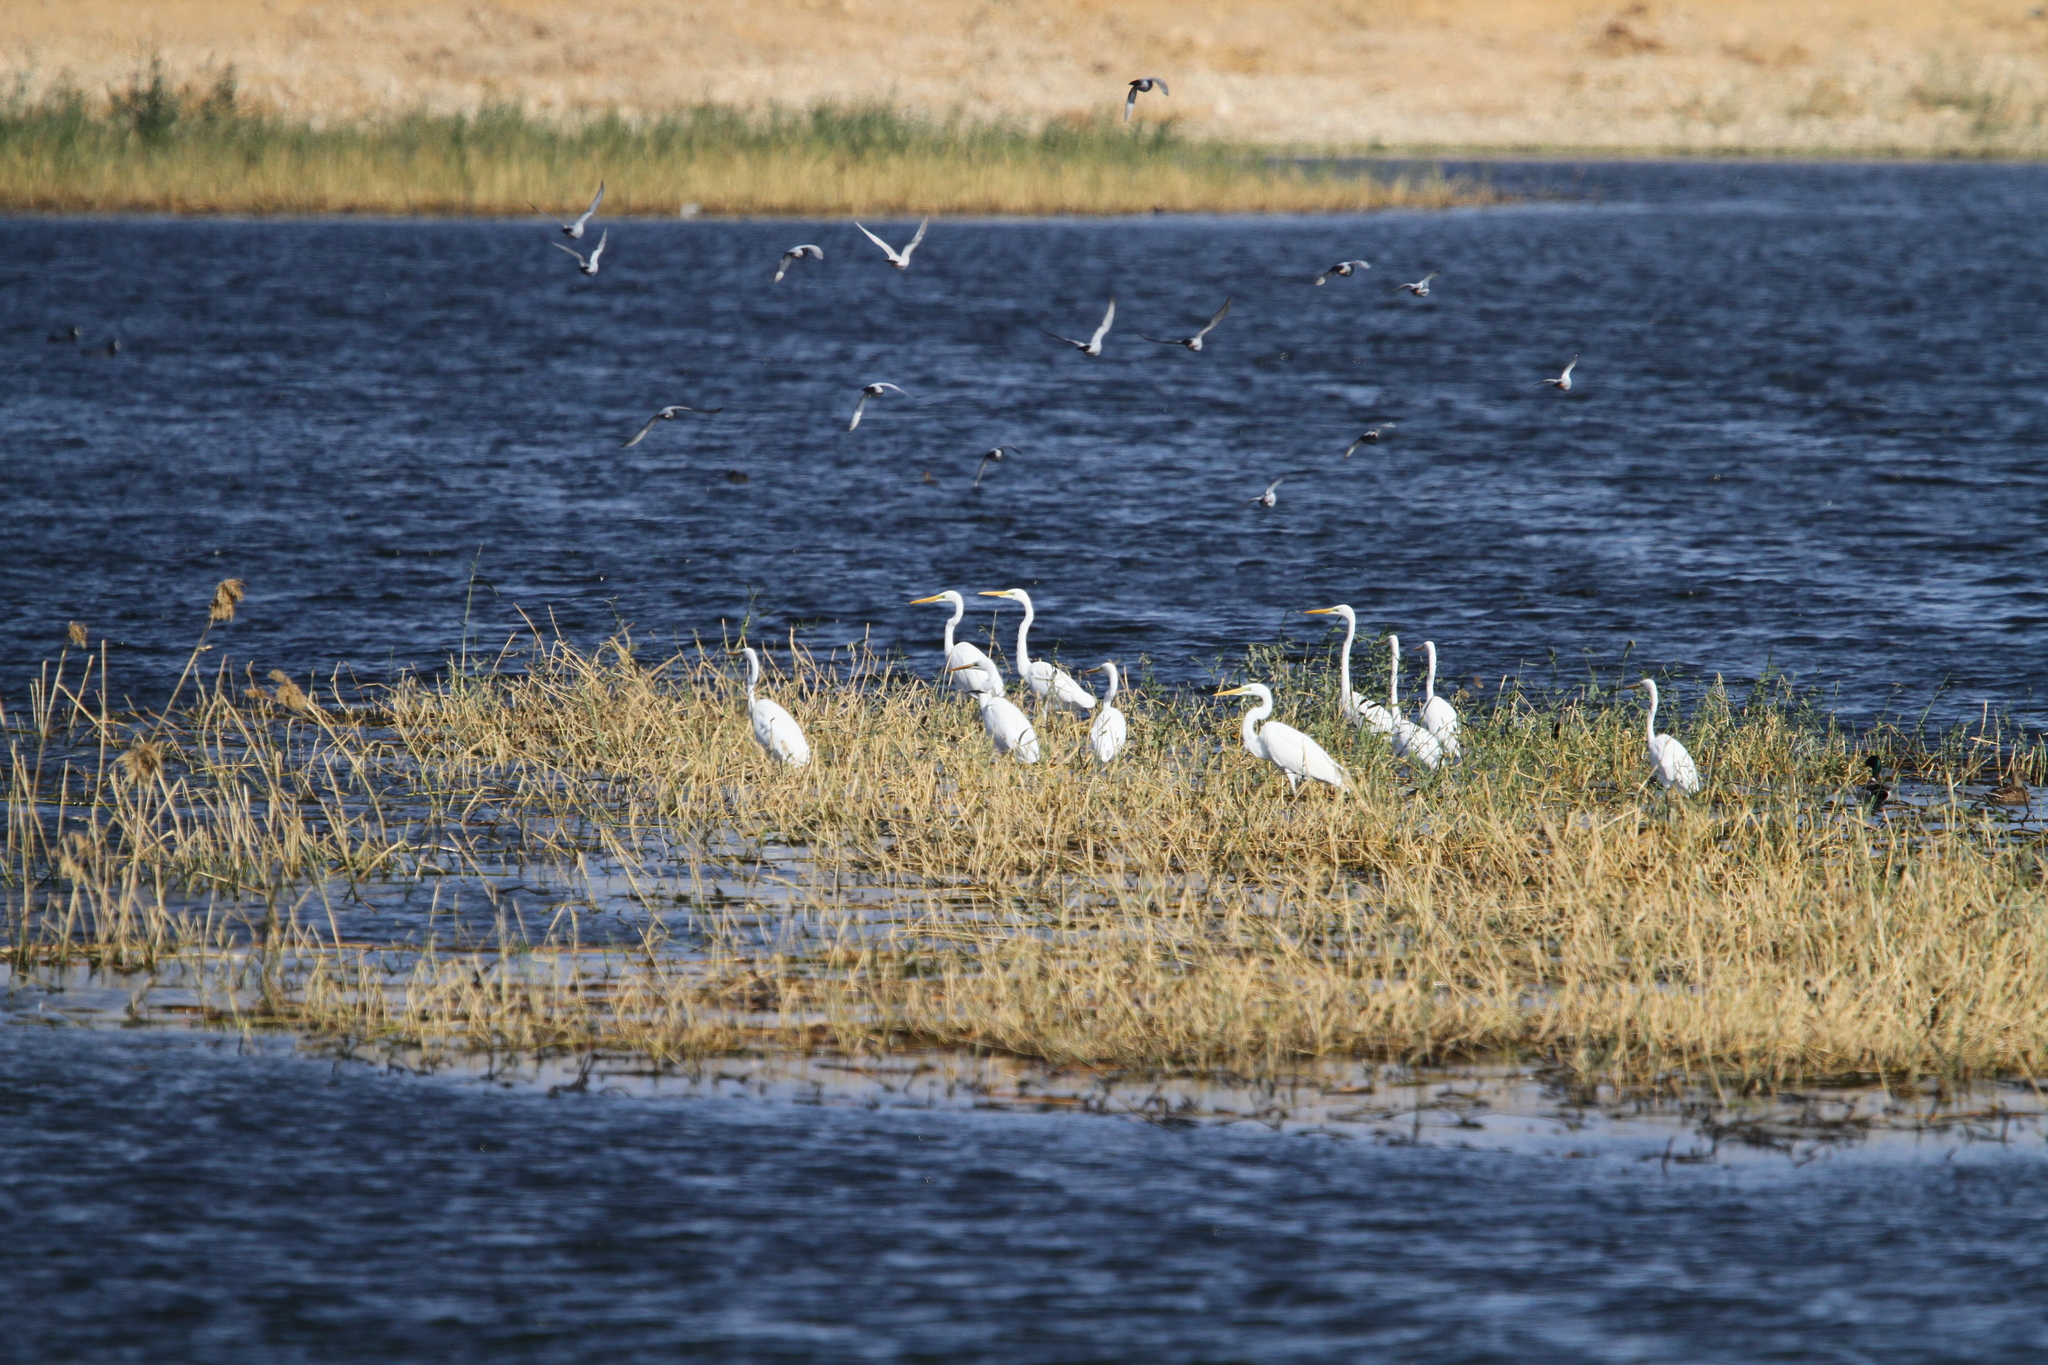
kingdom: Animalia
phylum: Chordata
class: Aves
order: Pelecaniformes
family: Ardeidae
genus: Ardea
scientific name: Ardea alba
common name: Great egret
